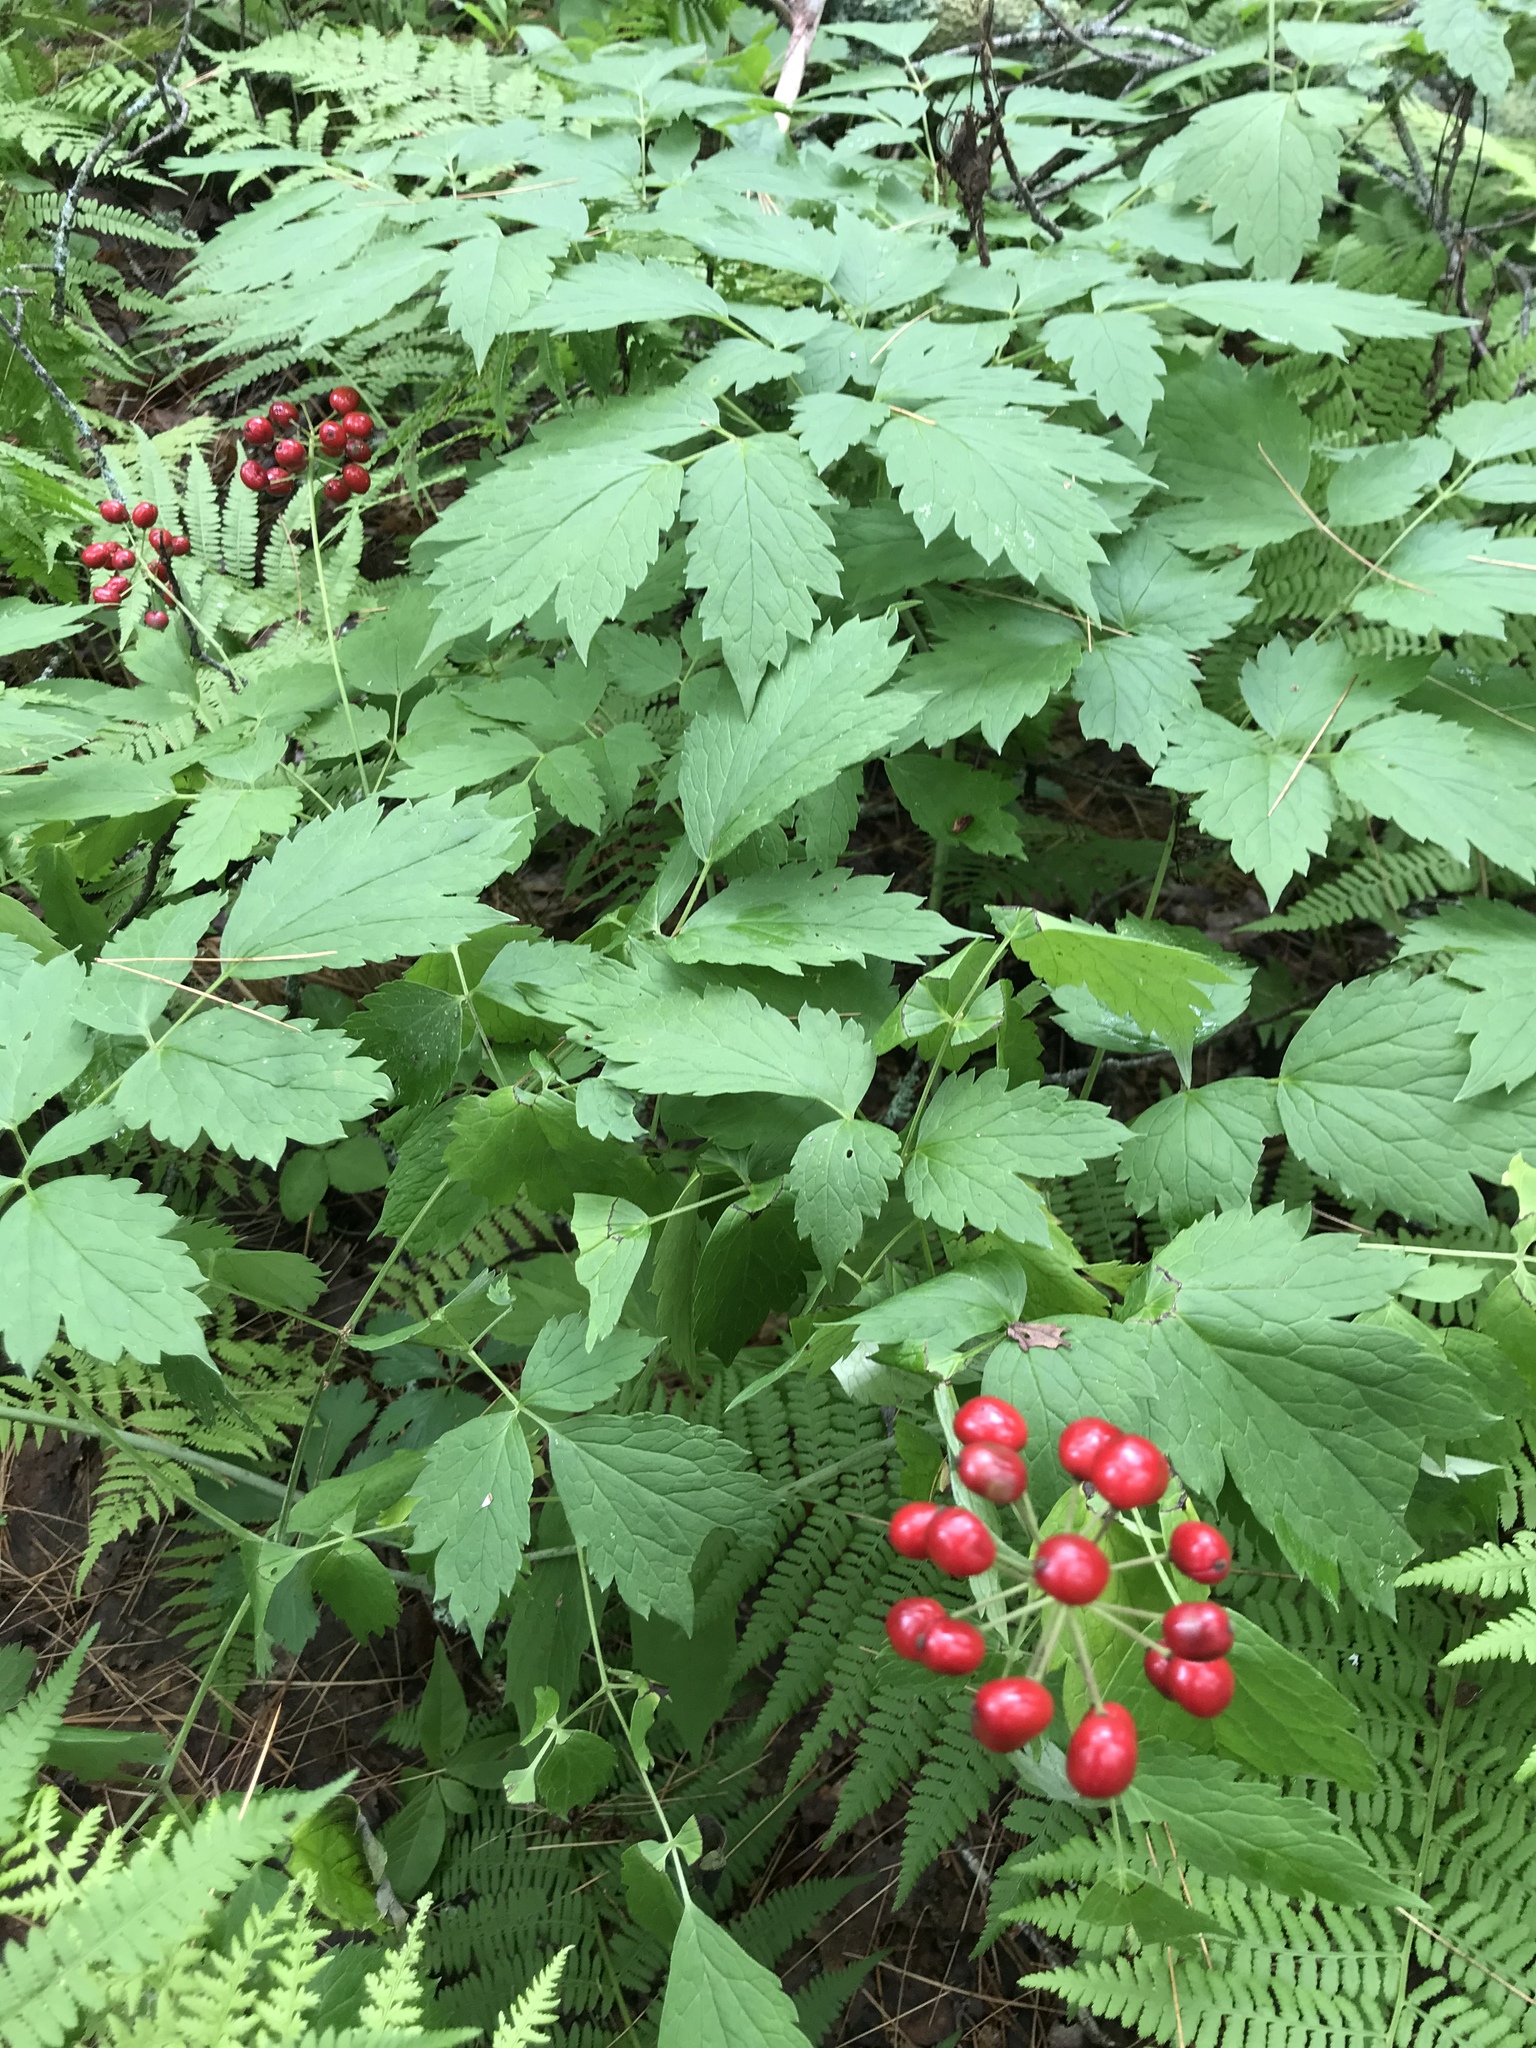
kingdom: Plantae
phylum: Tracheophyta
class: Magnoliopsida
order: Ranunculales
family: Ranunculaceae
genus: Actaea
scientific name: Actaea rubra
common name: Red baneberry
